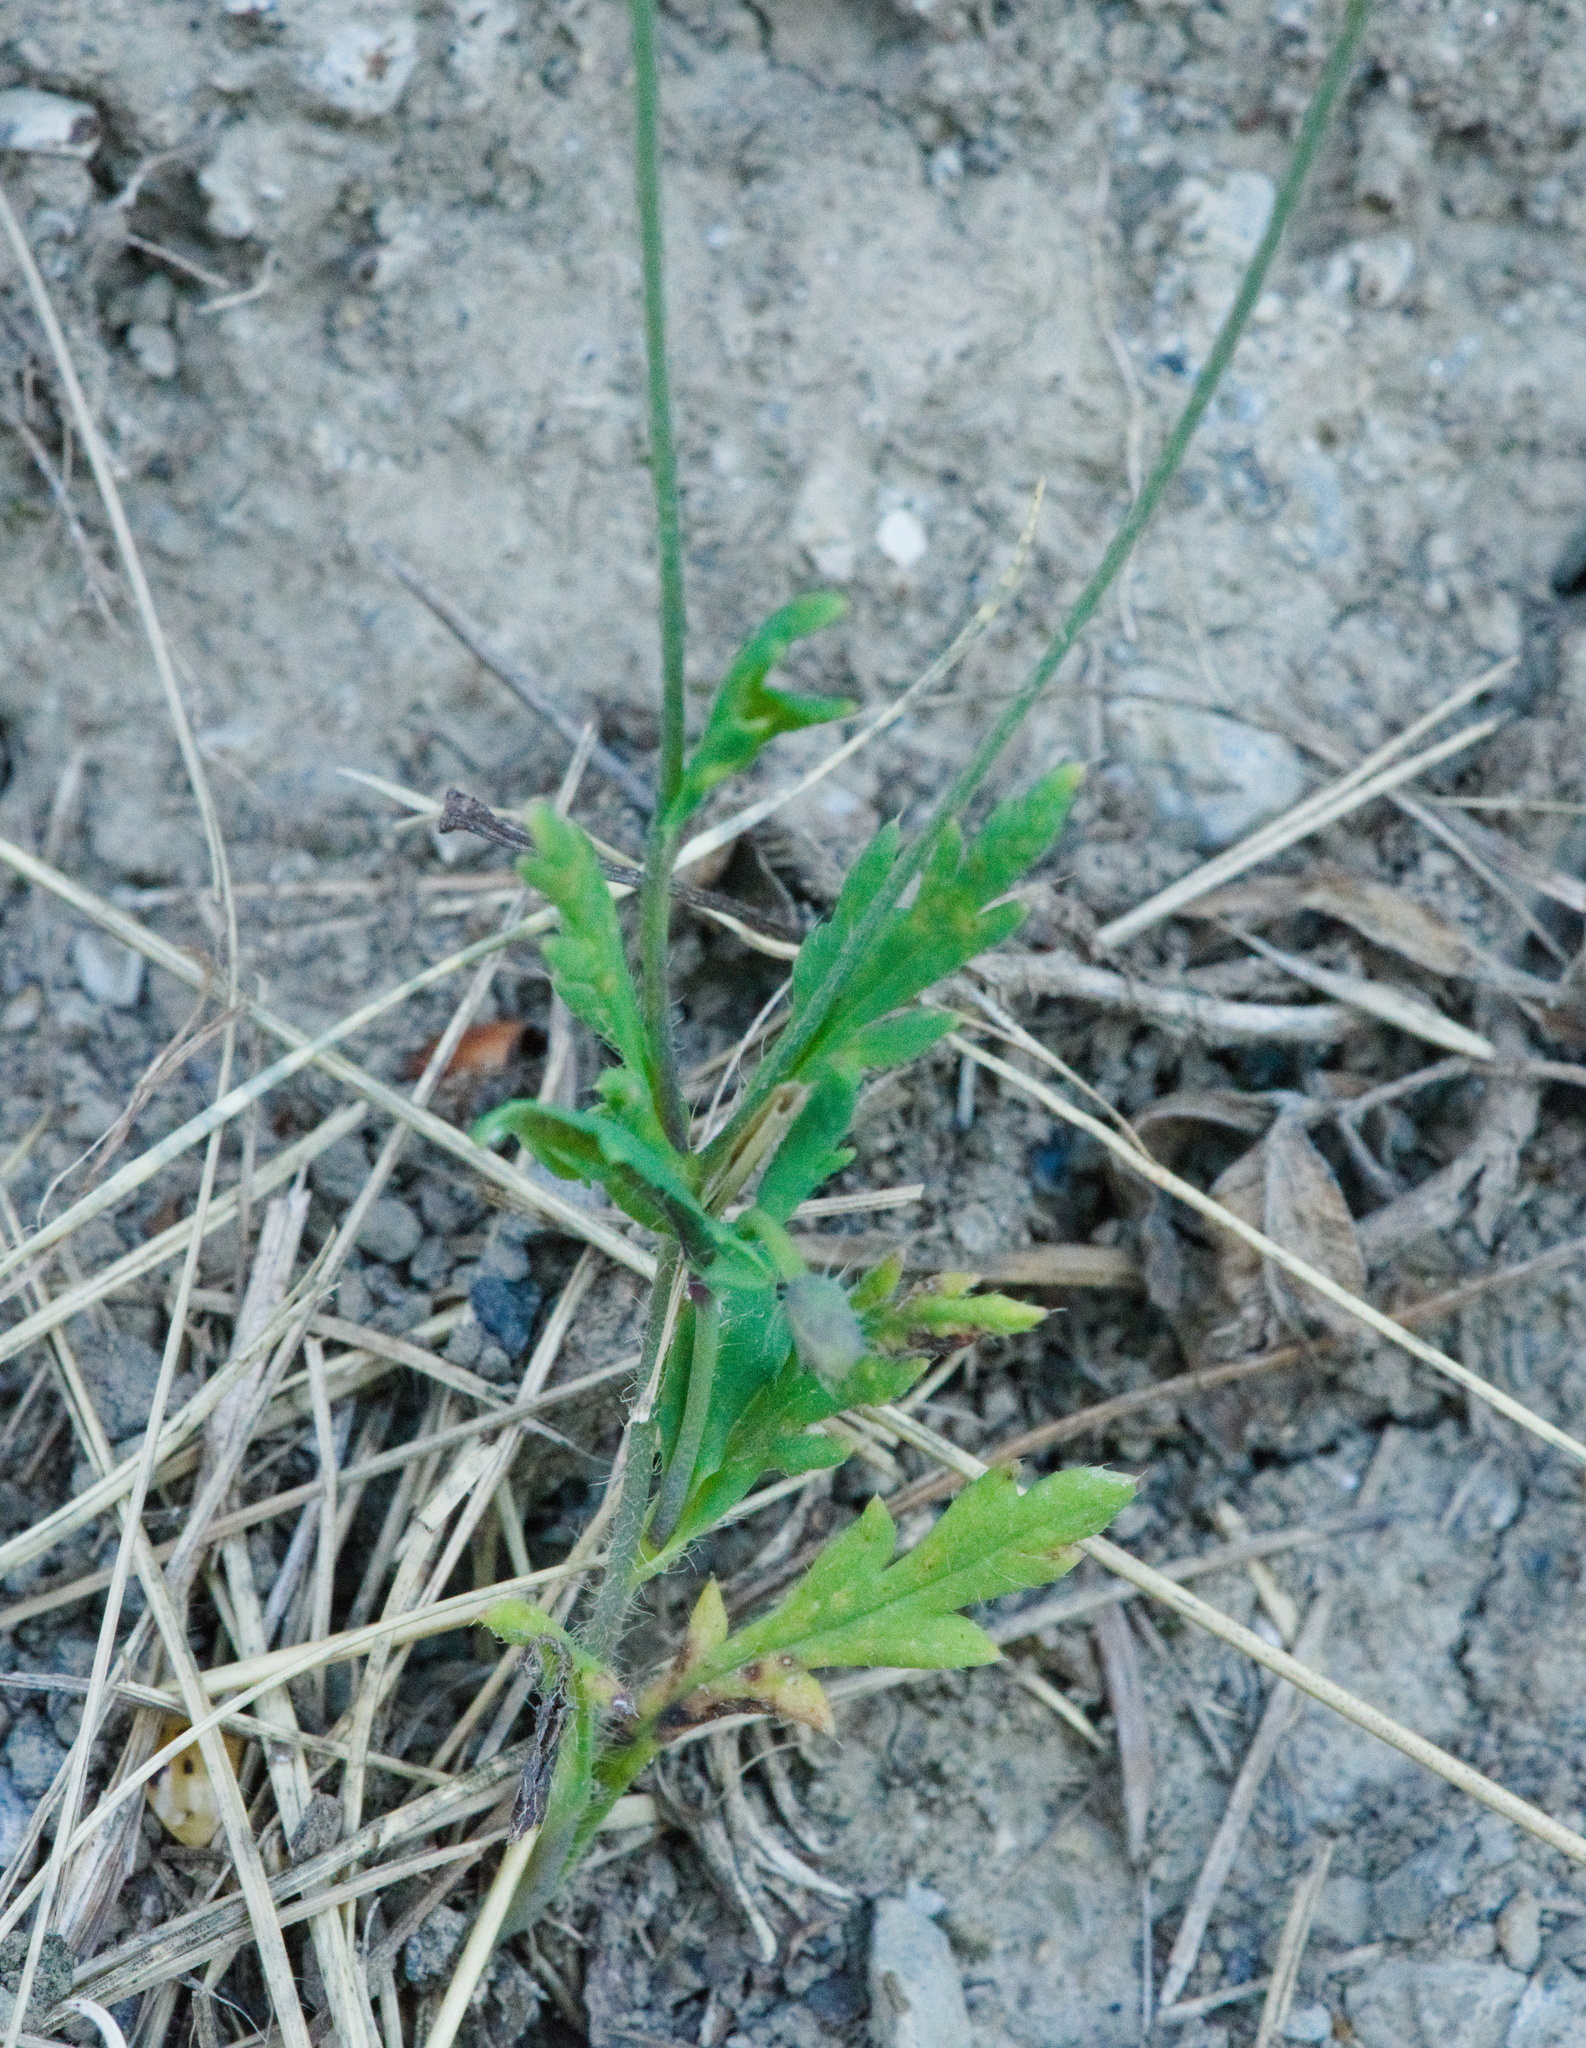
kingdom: Plantae
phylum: Tracheophyta
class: Magnoliopsida
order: Ranunculales
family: Papaveraceae
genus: Papaver
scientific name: Papaver dubium
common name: Long-headed poppy
